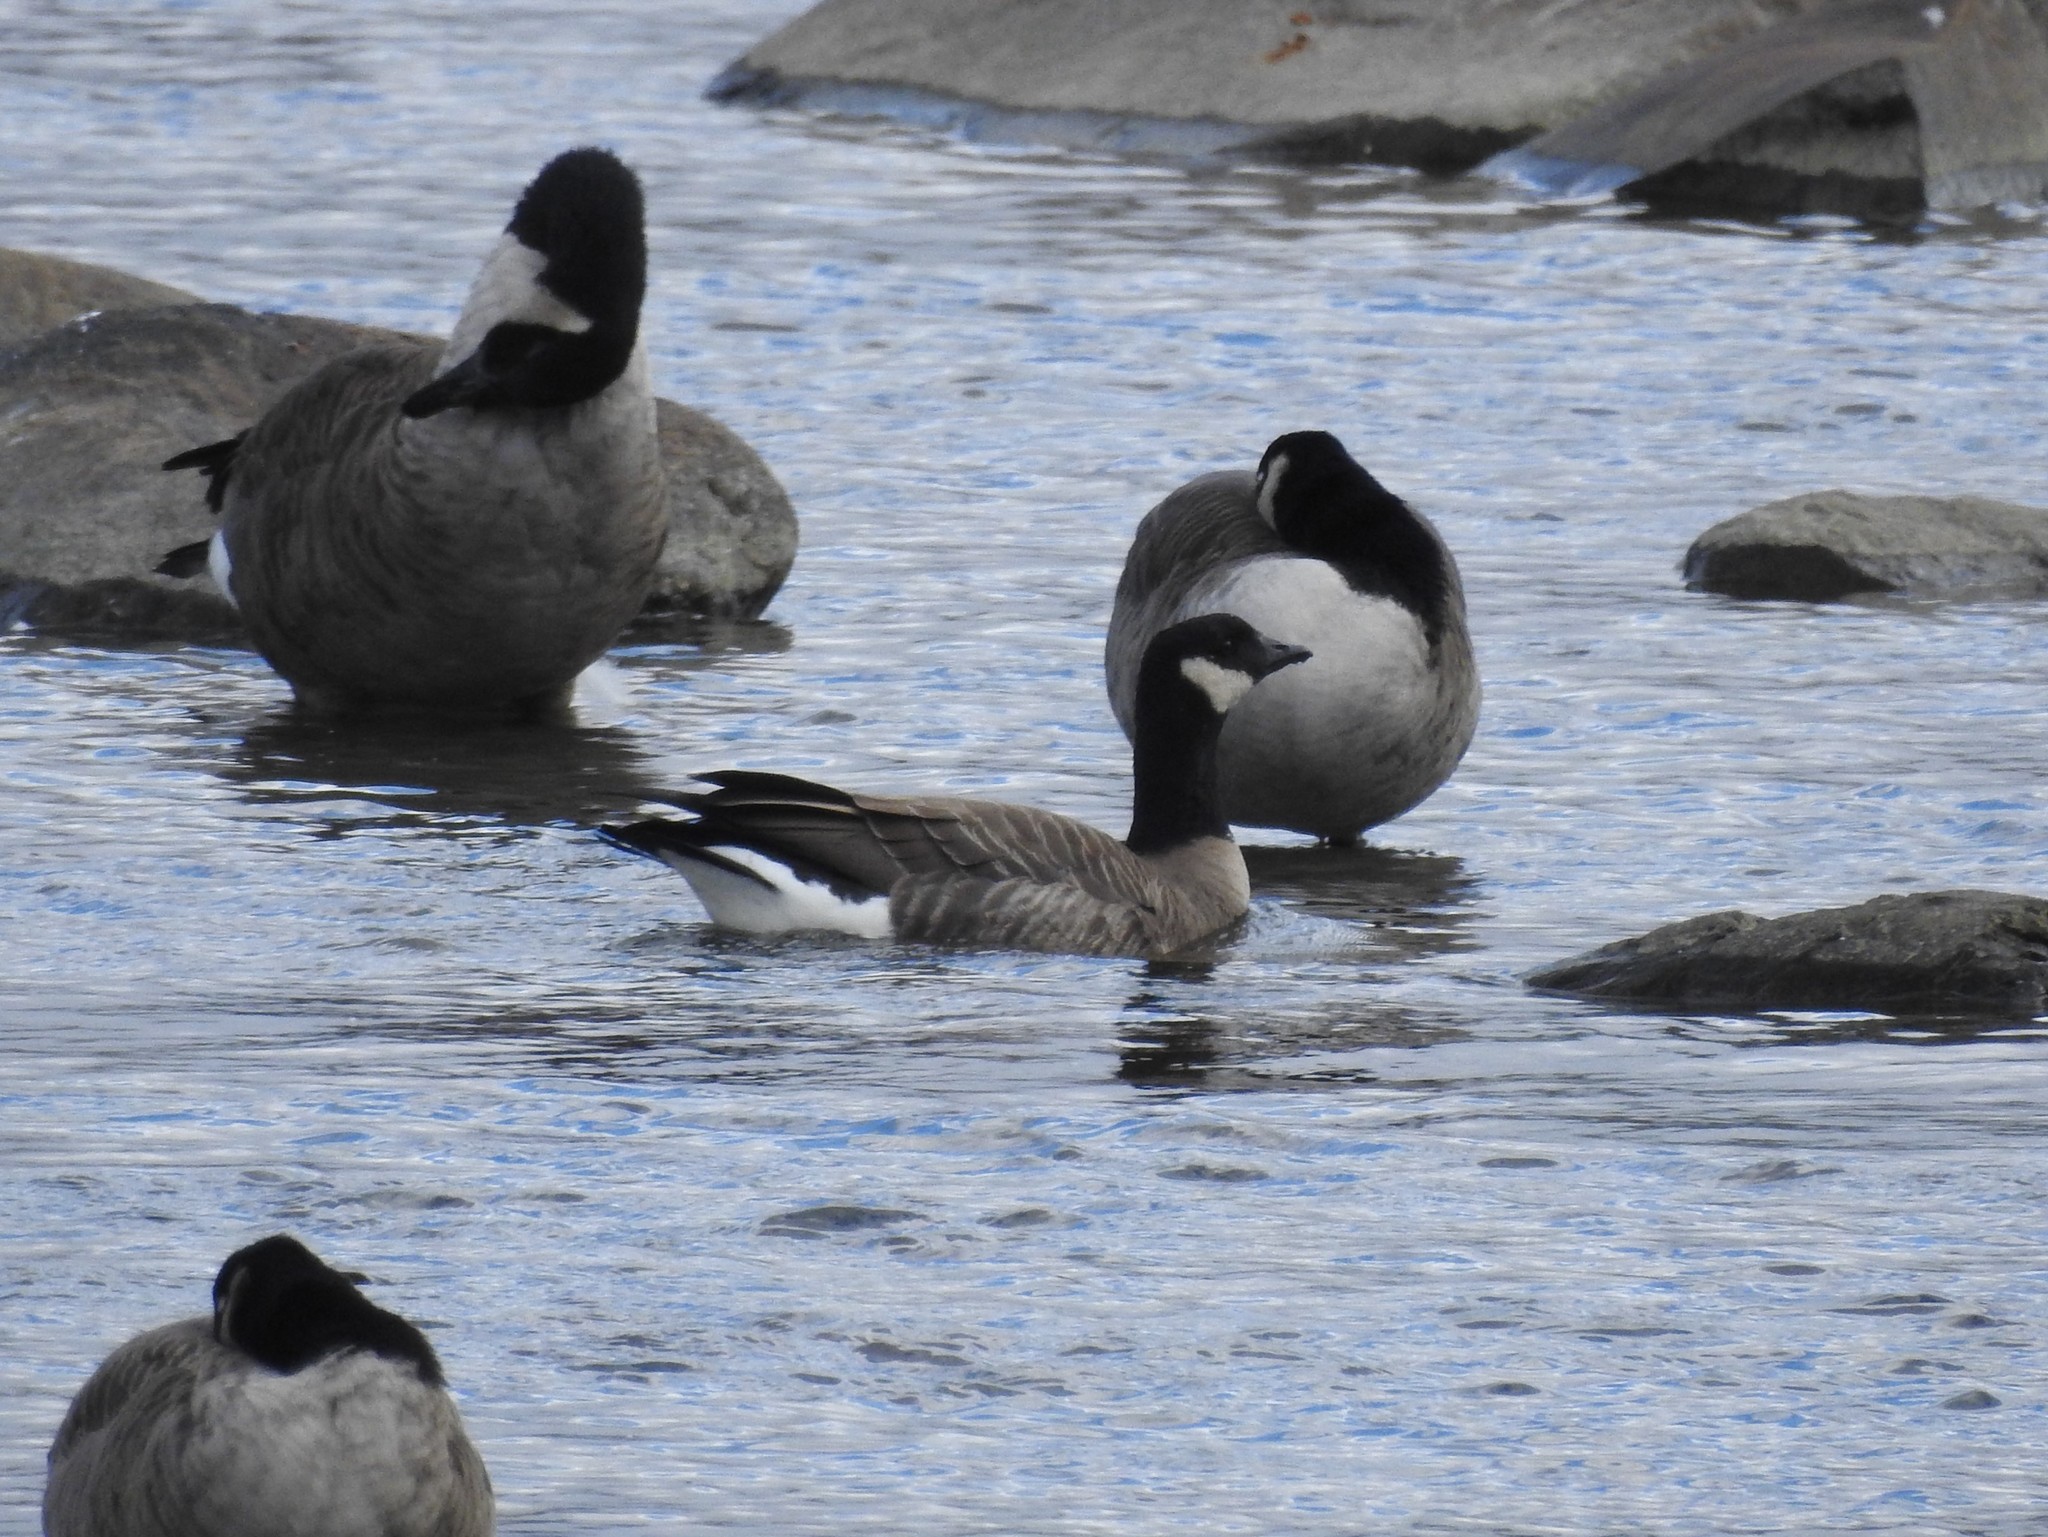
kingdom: Animalia
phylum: Chordata
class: Aves
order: Anseriformes
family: Anatidae
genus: Branta
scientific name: Branta hutchinsii
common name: Cackling goose
